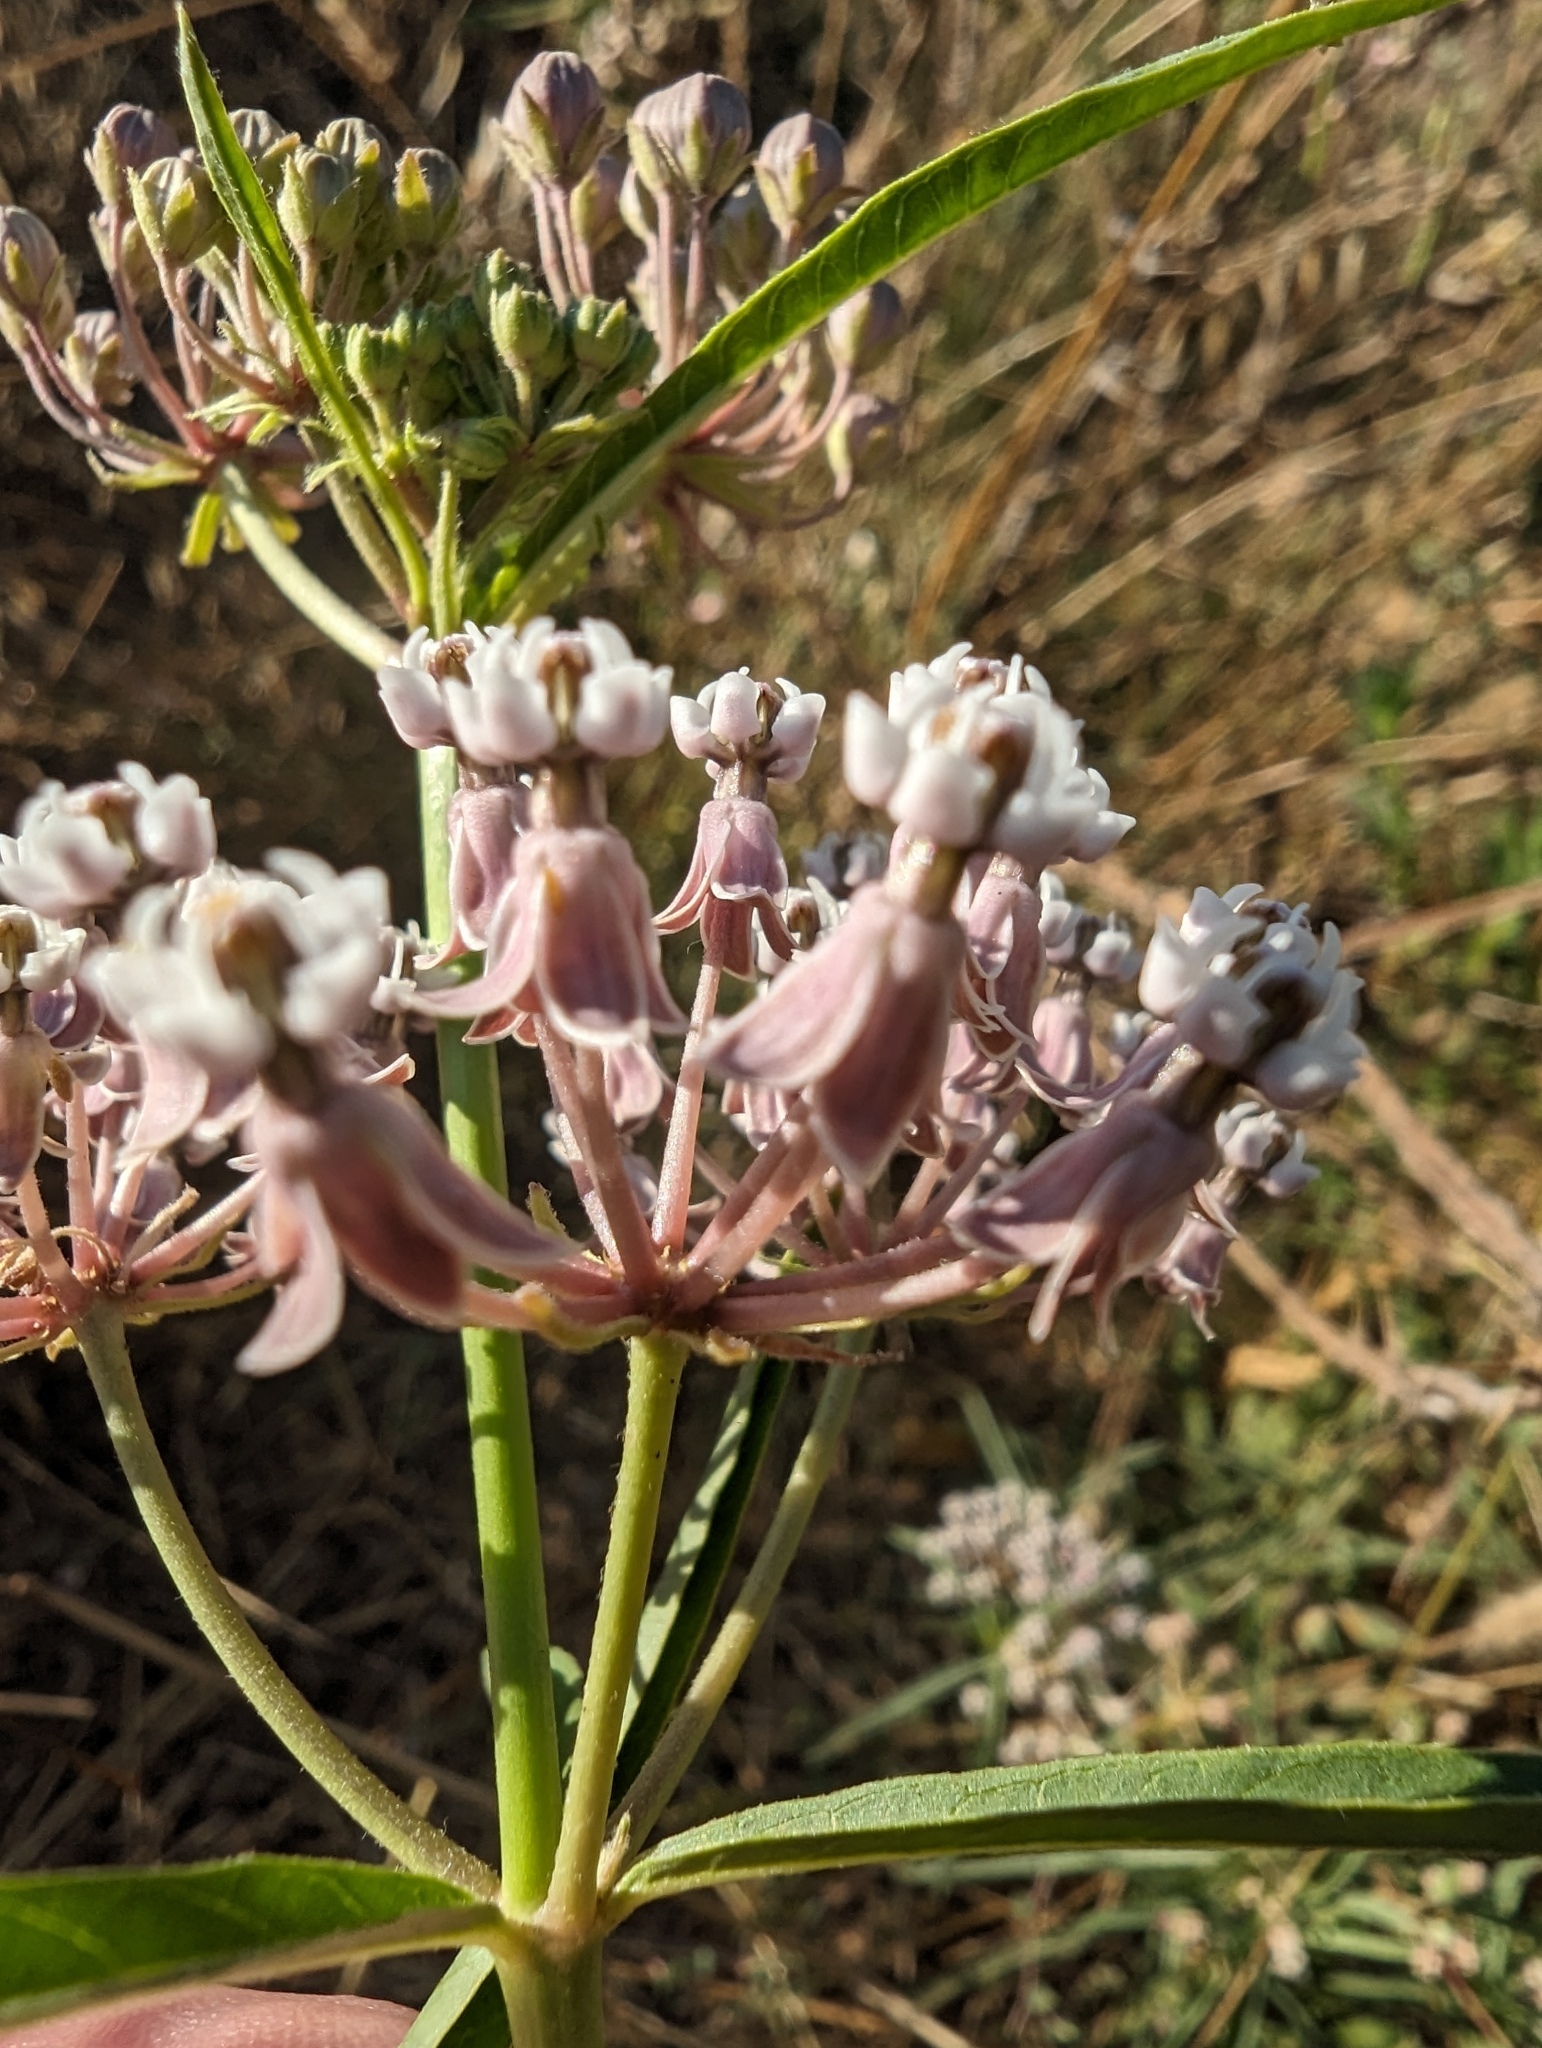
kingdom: Plantae
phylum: Tracheophyta
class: Magnoliopsida
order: Gentianales
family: Apocynaceae
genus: Asclepias
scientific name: Asclepias fascicularis
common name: Mexican milkweed
